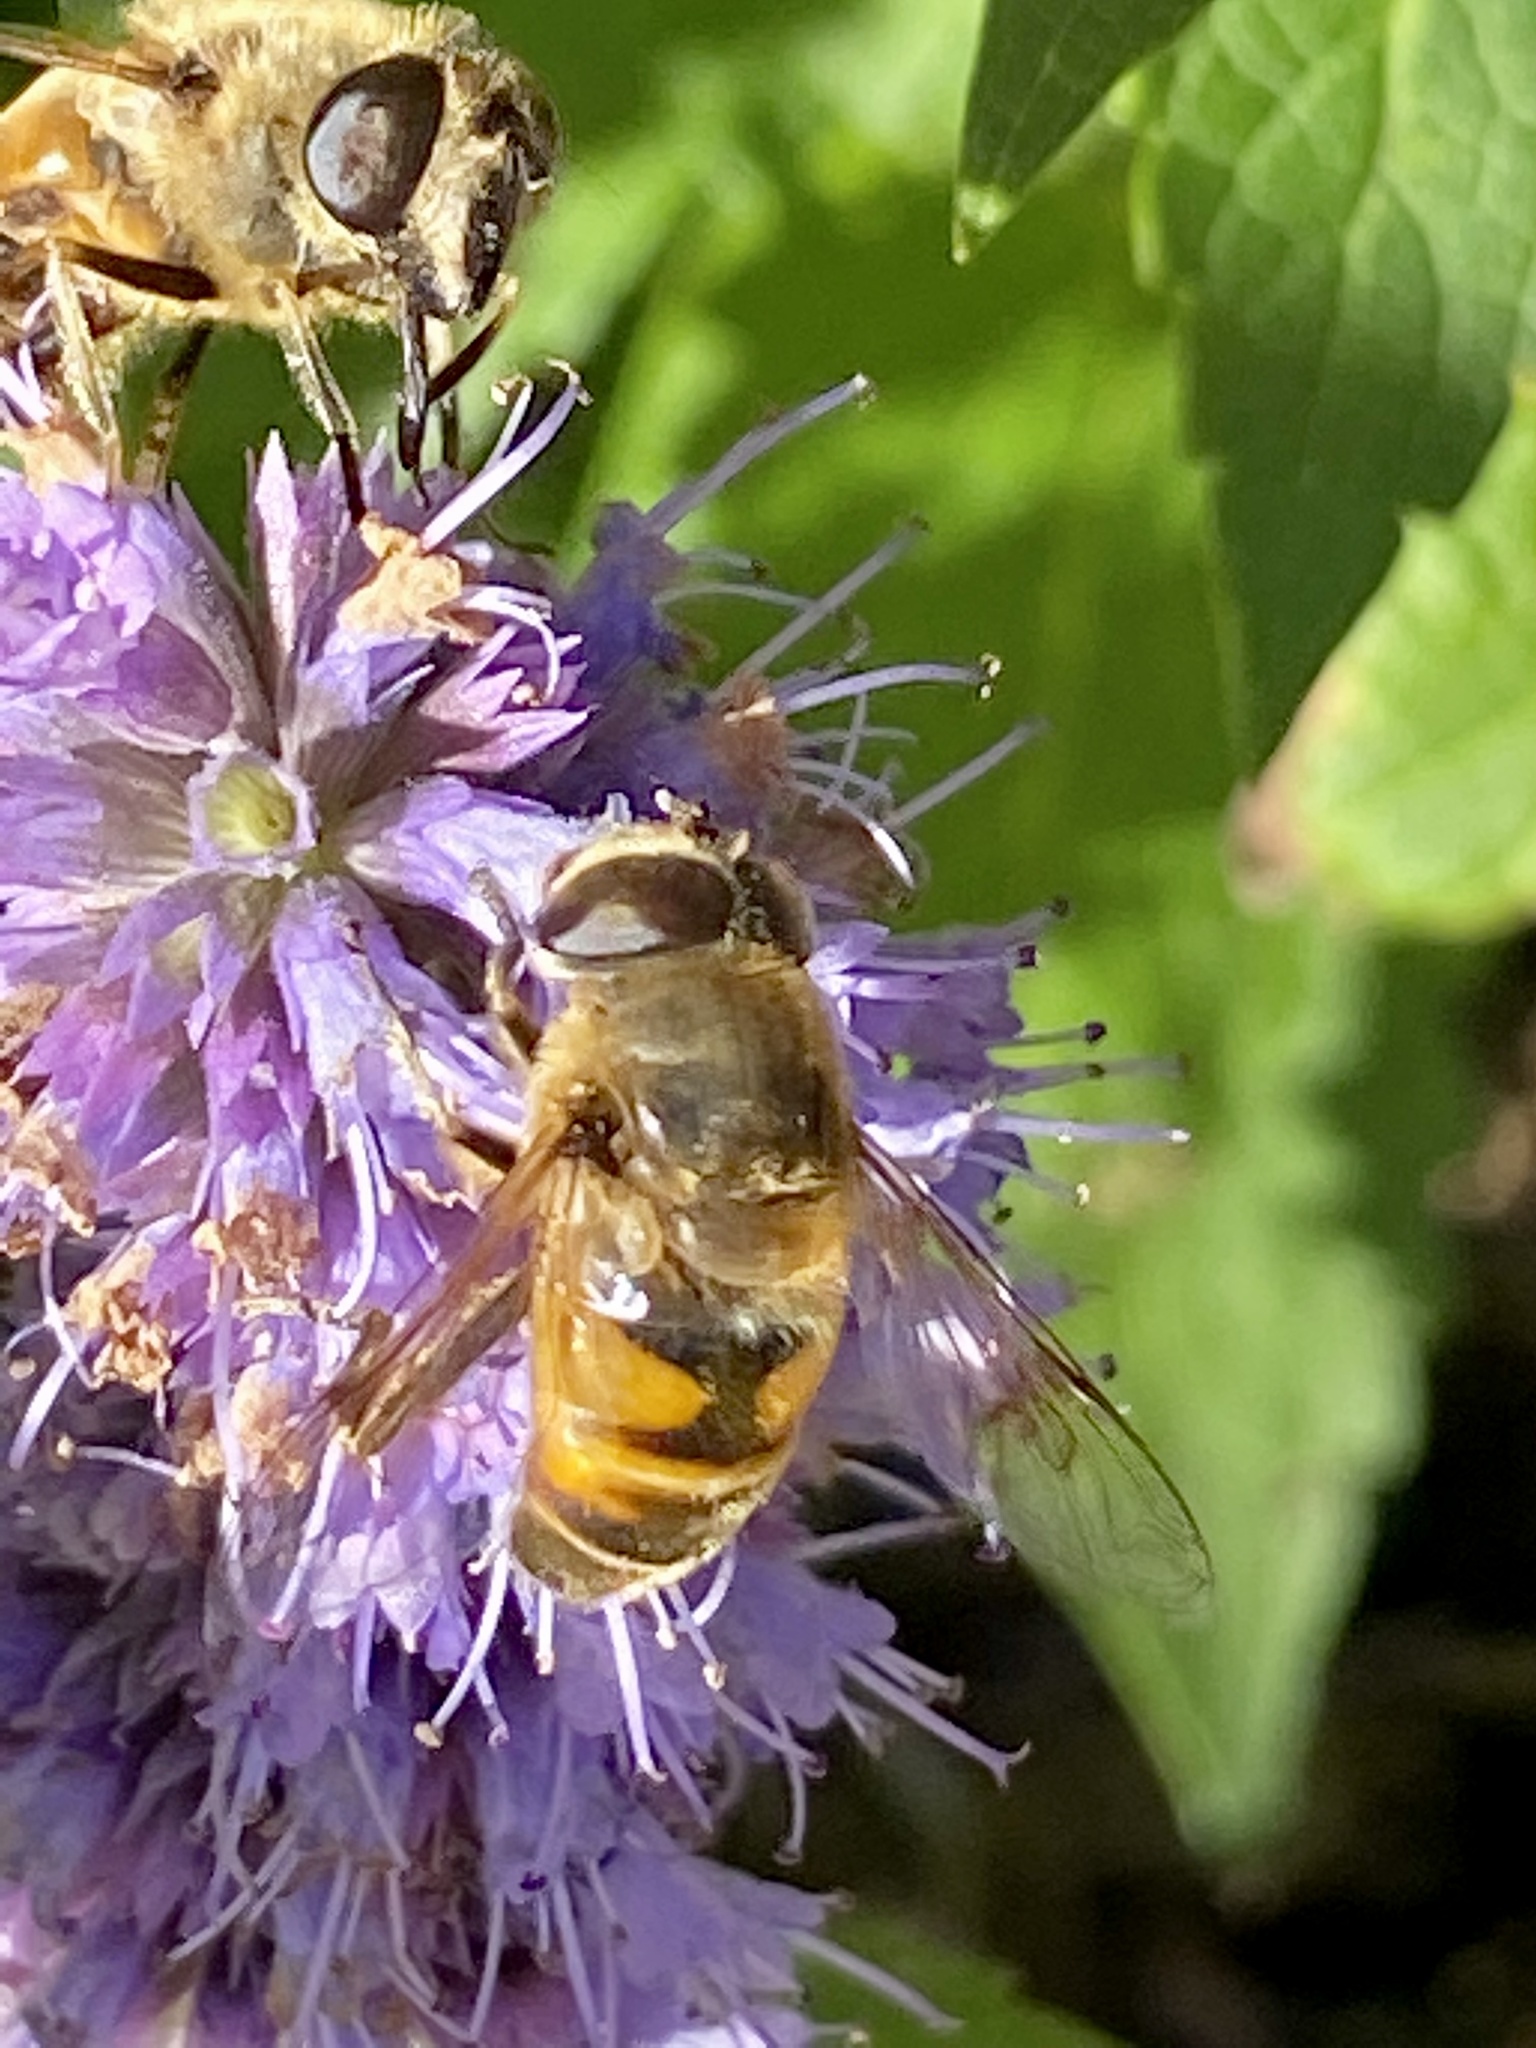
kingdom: Animalia
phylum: Arthropoda
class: Insecta
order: Diptera
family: Syrphidae
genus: Eristalis
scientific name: Eristalis tenax
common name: Drone fly
